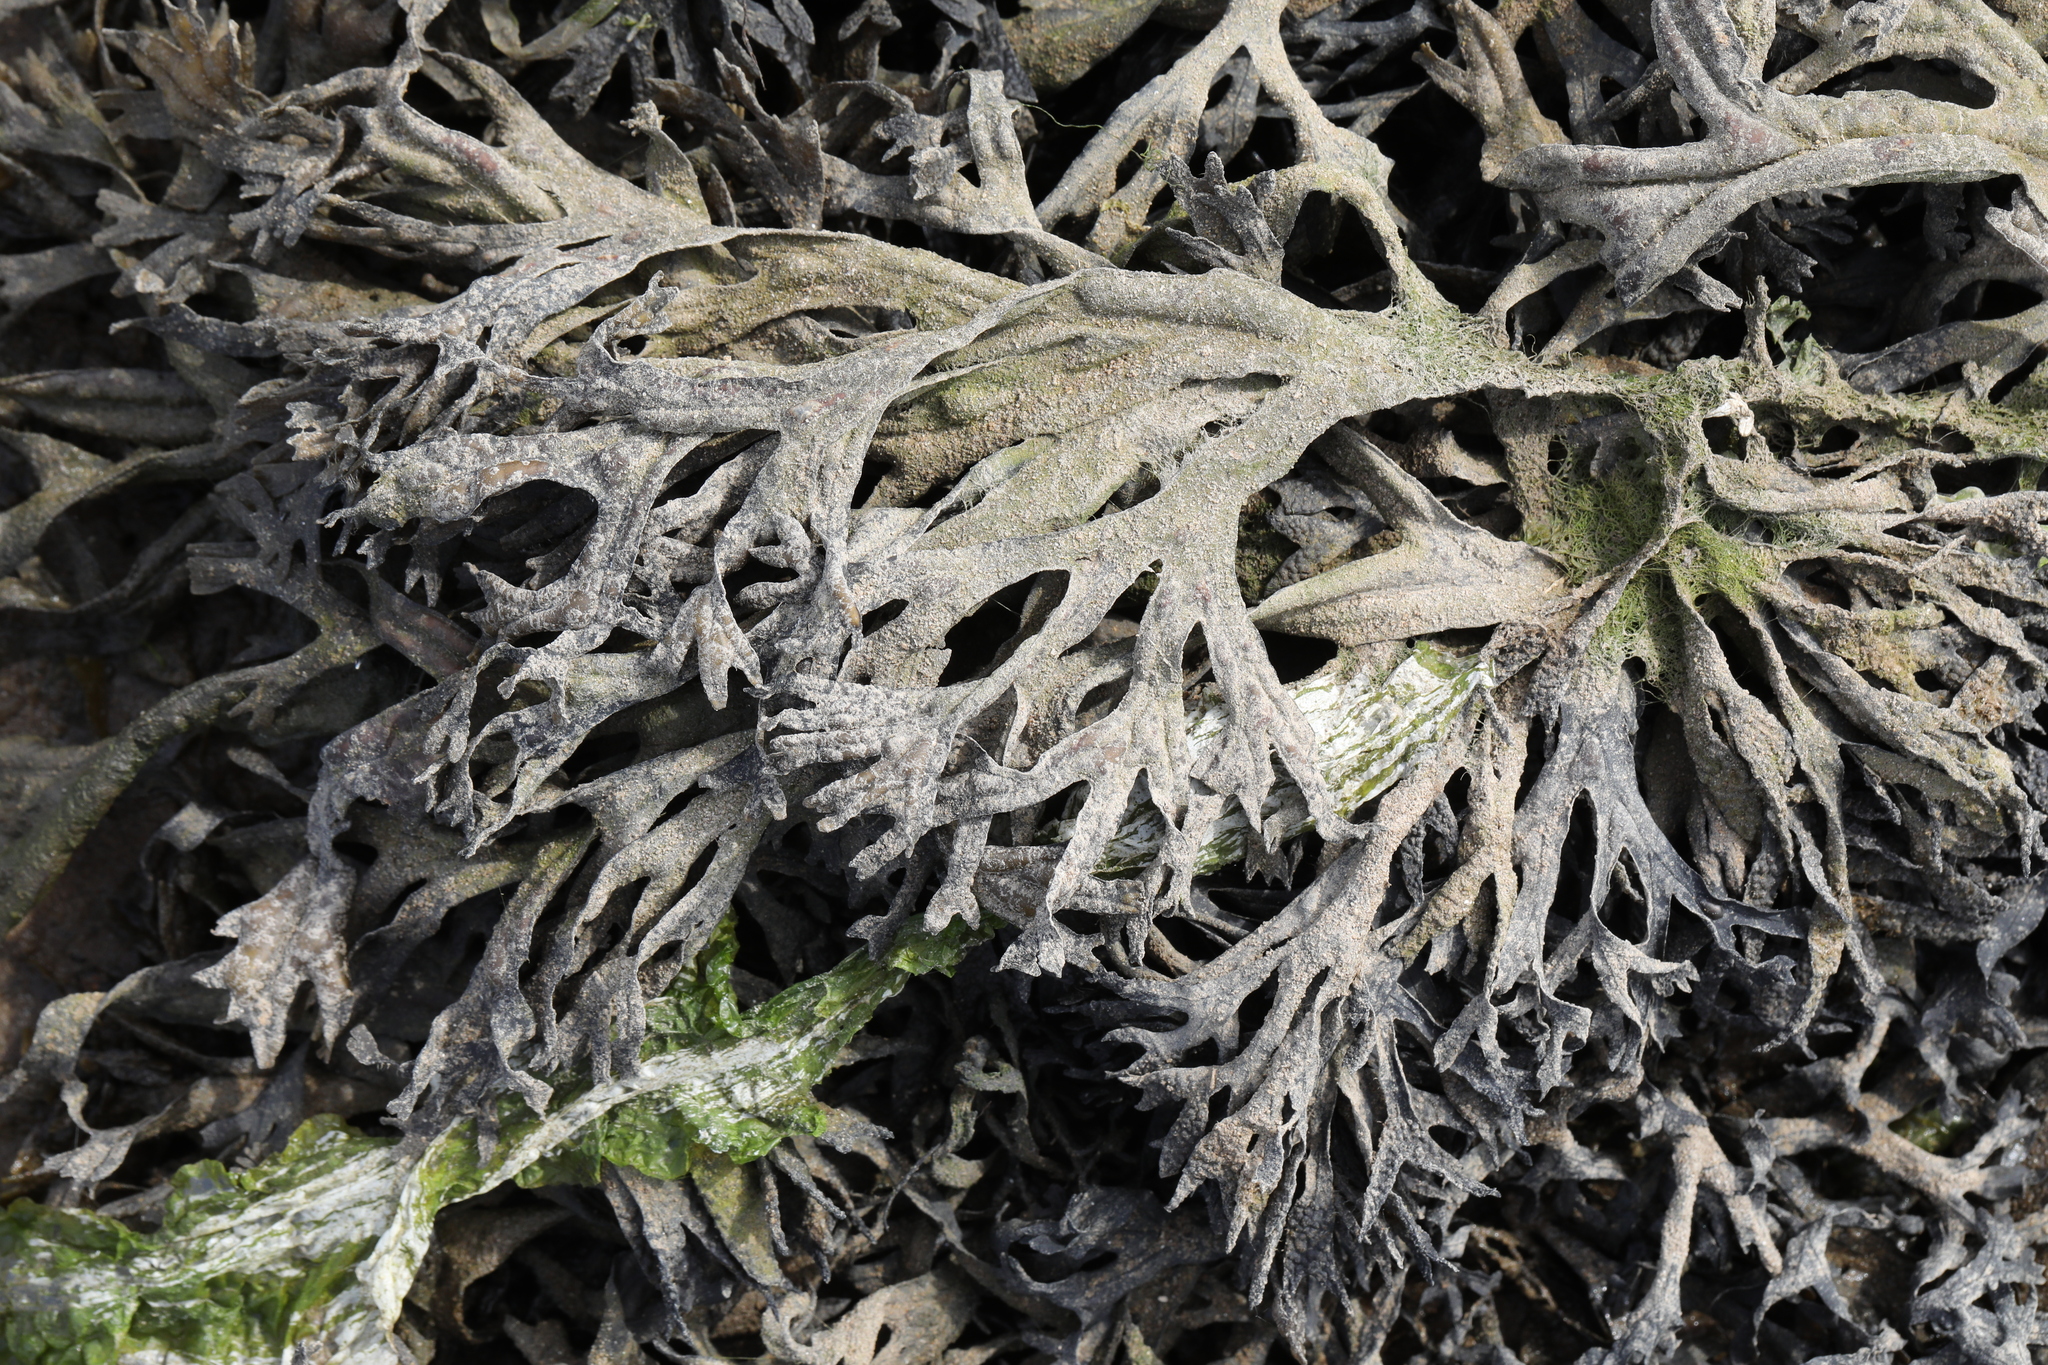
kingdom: Chromista
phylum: Ochrophyta
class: Phaeophyceae
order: Fucales
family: Fucaceae
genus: Fucus
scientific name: Fucus ceranoides
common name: Horned wrack
